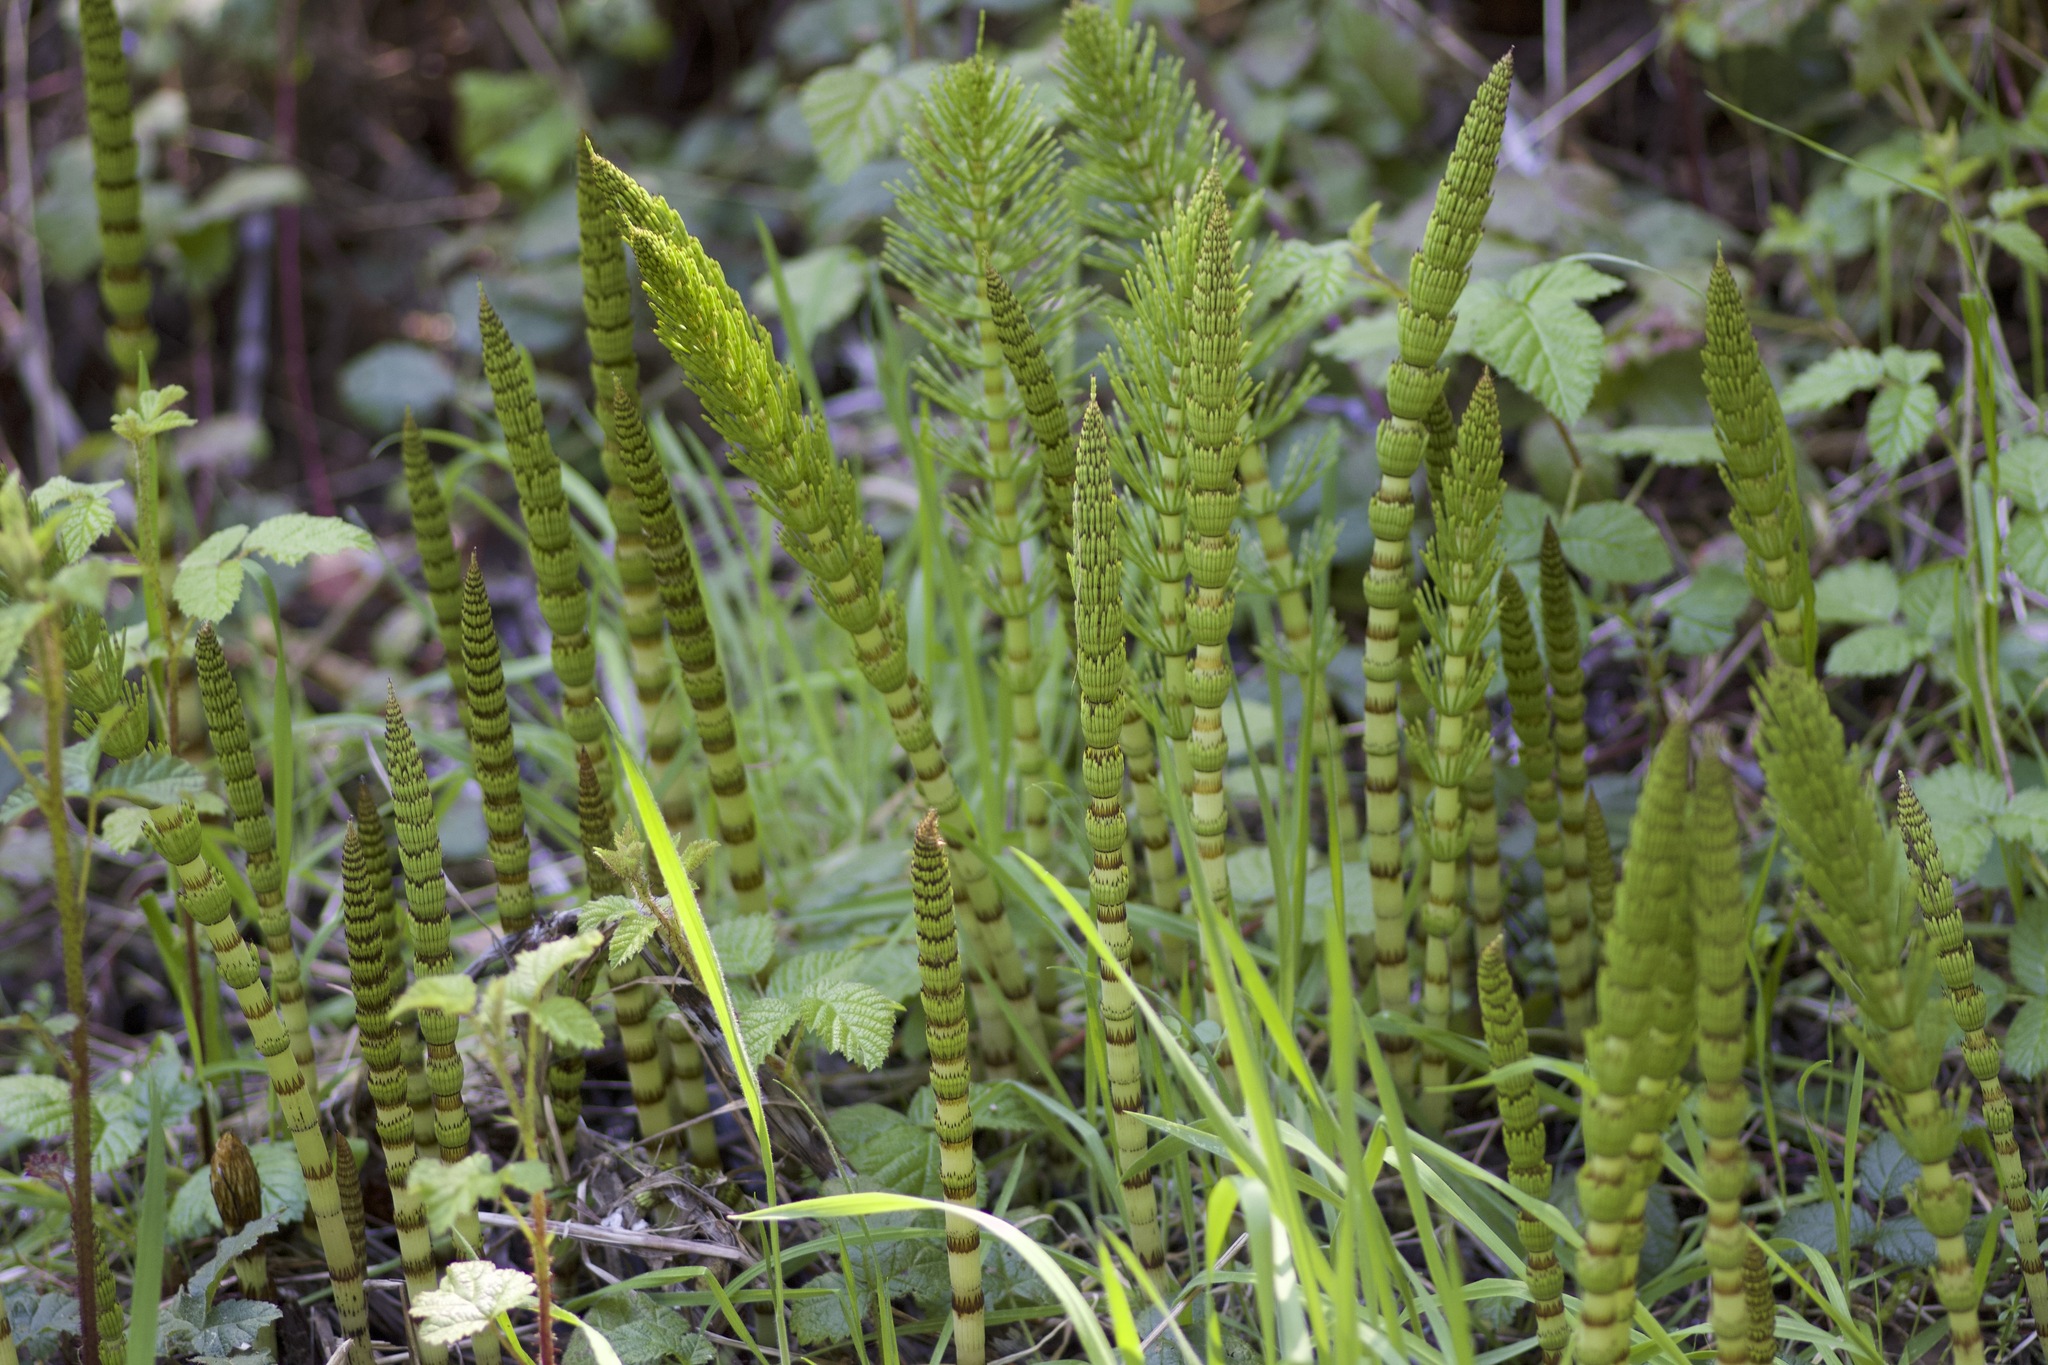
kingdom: Plantae
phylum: Tracheophyta
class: Polypodiopsida
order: Equisetales
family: Equisetaceae
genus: Equisetum
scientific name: Equisetum telmateia
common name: Great horsetail
